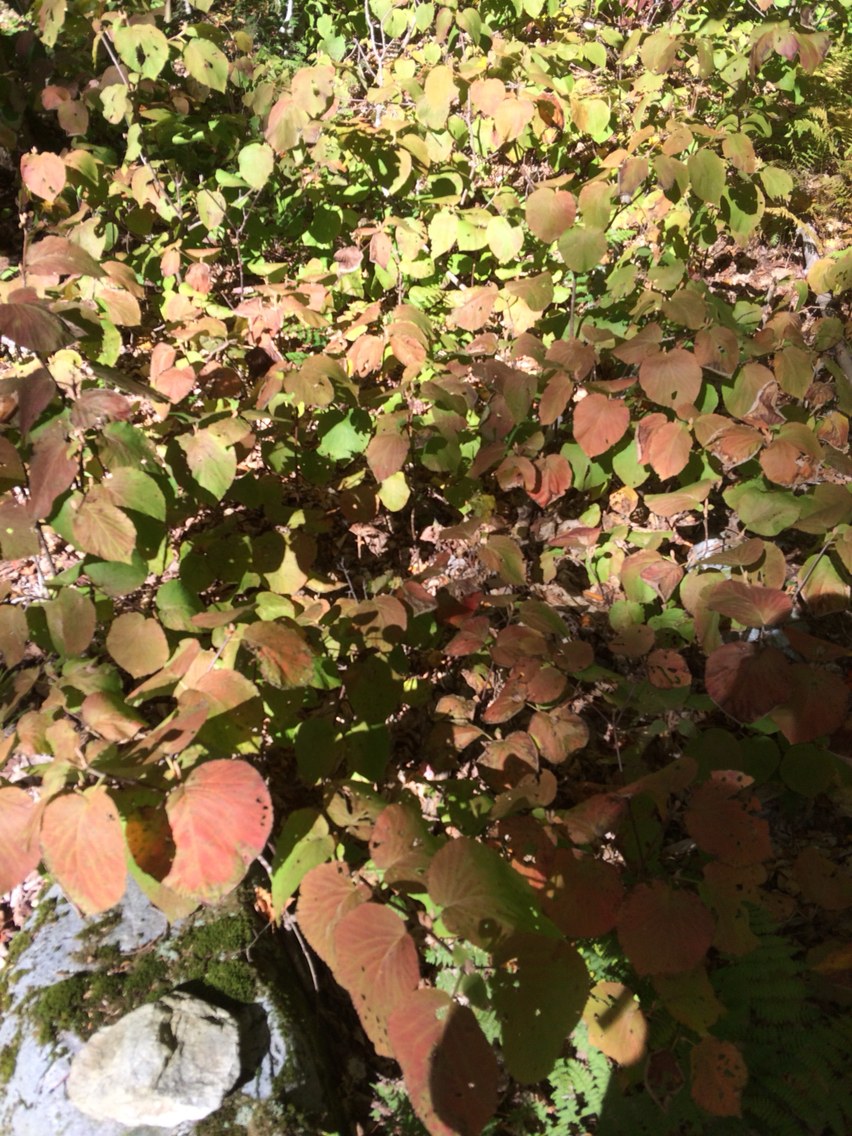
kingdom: Plantae
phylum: Tracheophyta
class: Magnoliopsida
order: Dipsacales
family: Viburnaceae
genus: Viburnum
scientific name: Viburnum lantanoides
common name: Hobblebush
